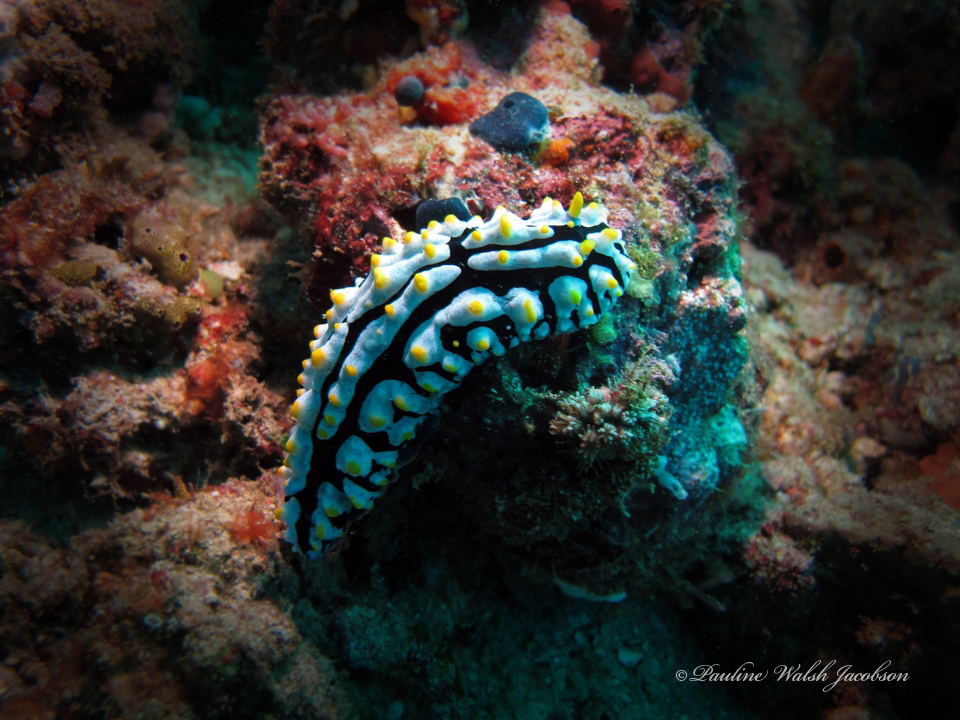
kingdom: Animalia
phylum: Mollusca
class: Gastropoda
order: Nudibranchia
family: Phyllidiidae
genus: Phyllidia
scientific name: Phyllidia varicosa
